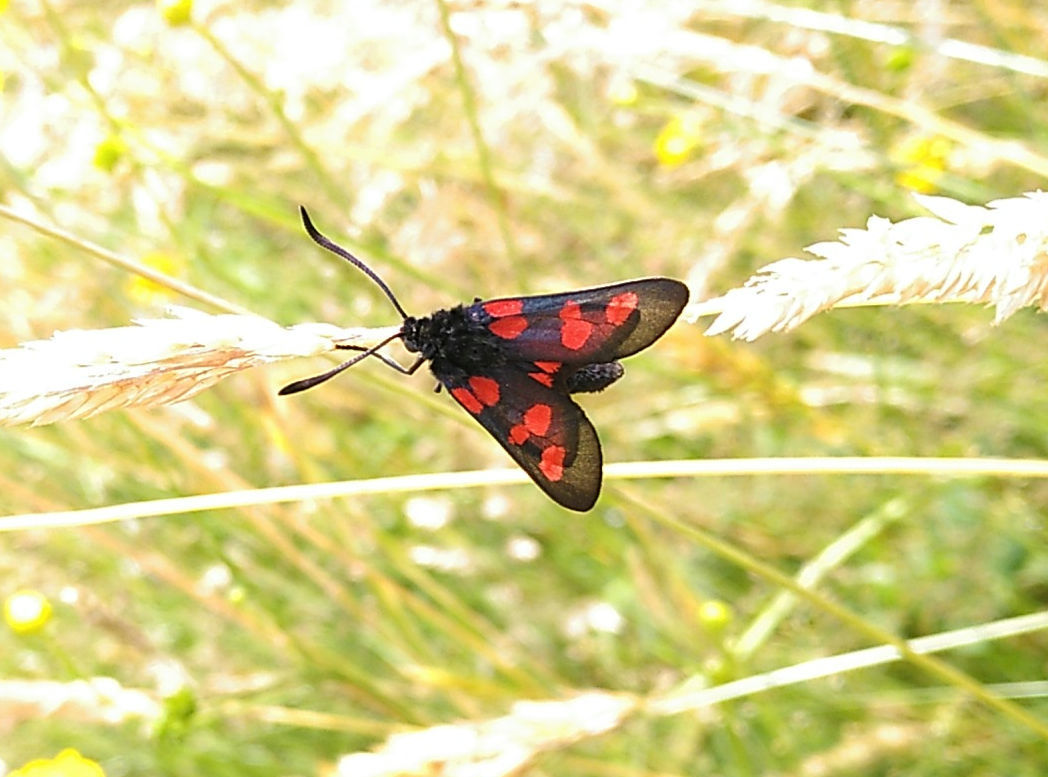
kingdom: Animalia
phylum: Arthropoda
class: Insecta
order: Lepidoptera
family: Zygaenidae
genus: Zygaena
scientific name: Zygaena trifolii
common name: Five-spot burnet
